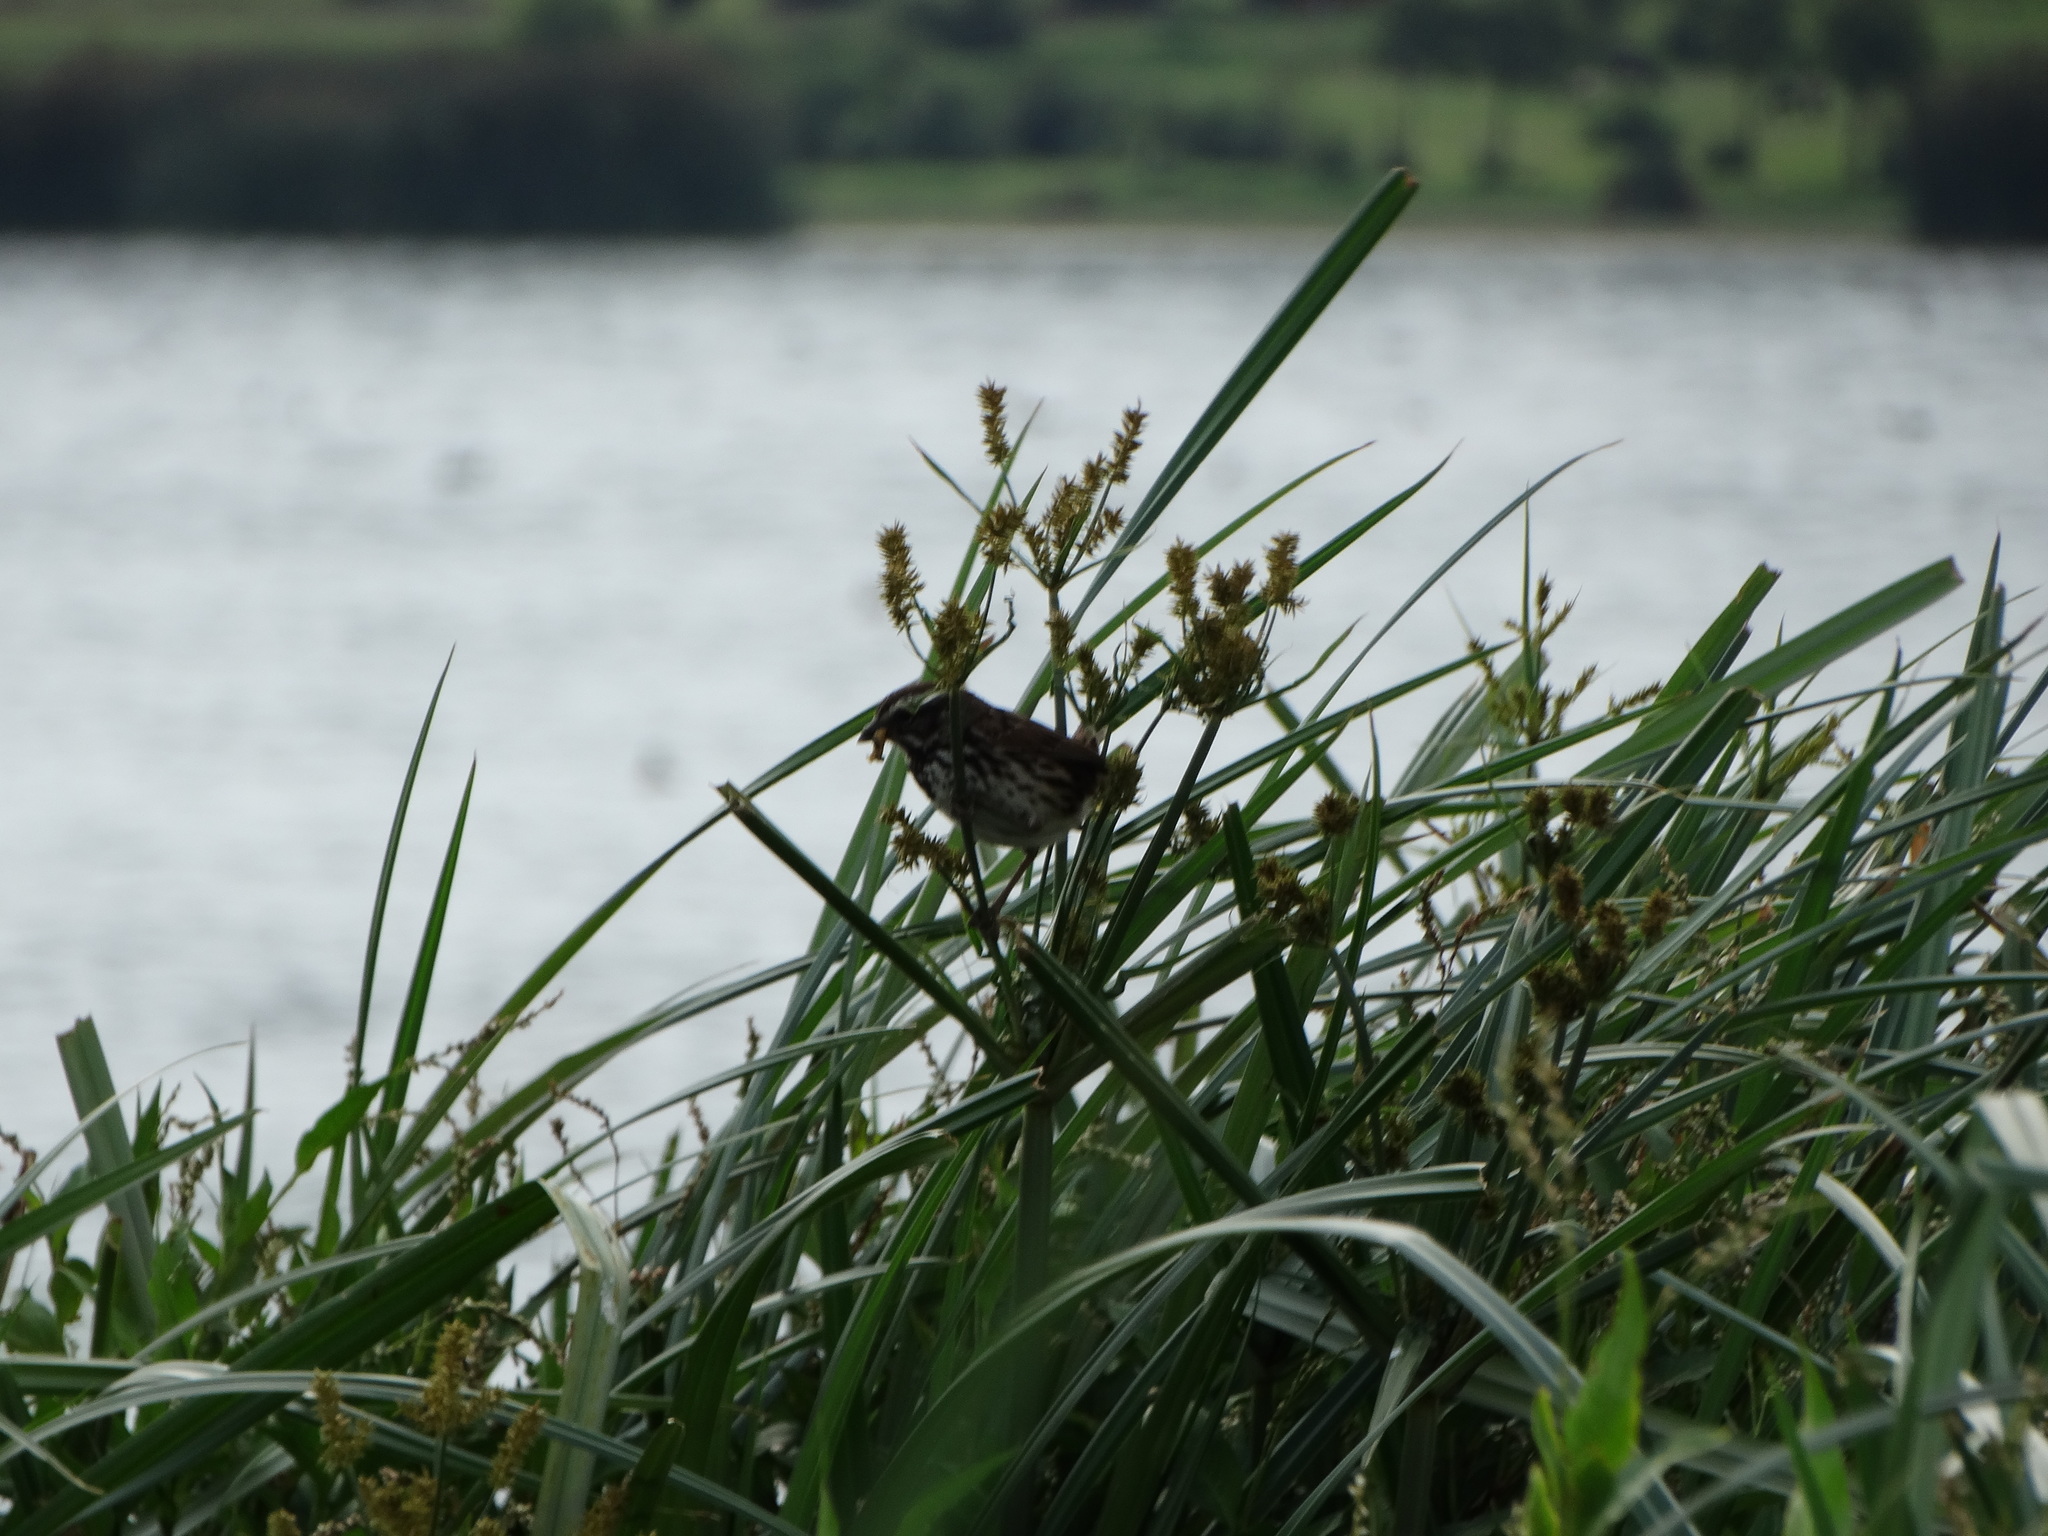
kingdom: Animalia
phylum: Chordata
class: Aves
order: Passeriformes
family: Passerellidae
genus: Melospiza
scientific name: Melospiza melodia
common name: Song sparrow
